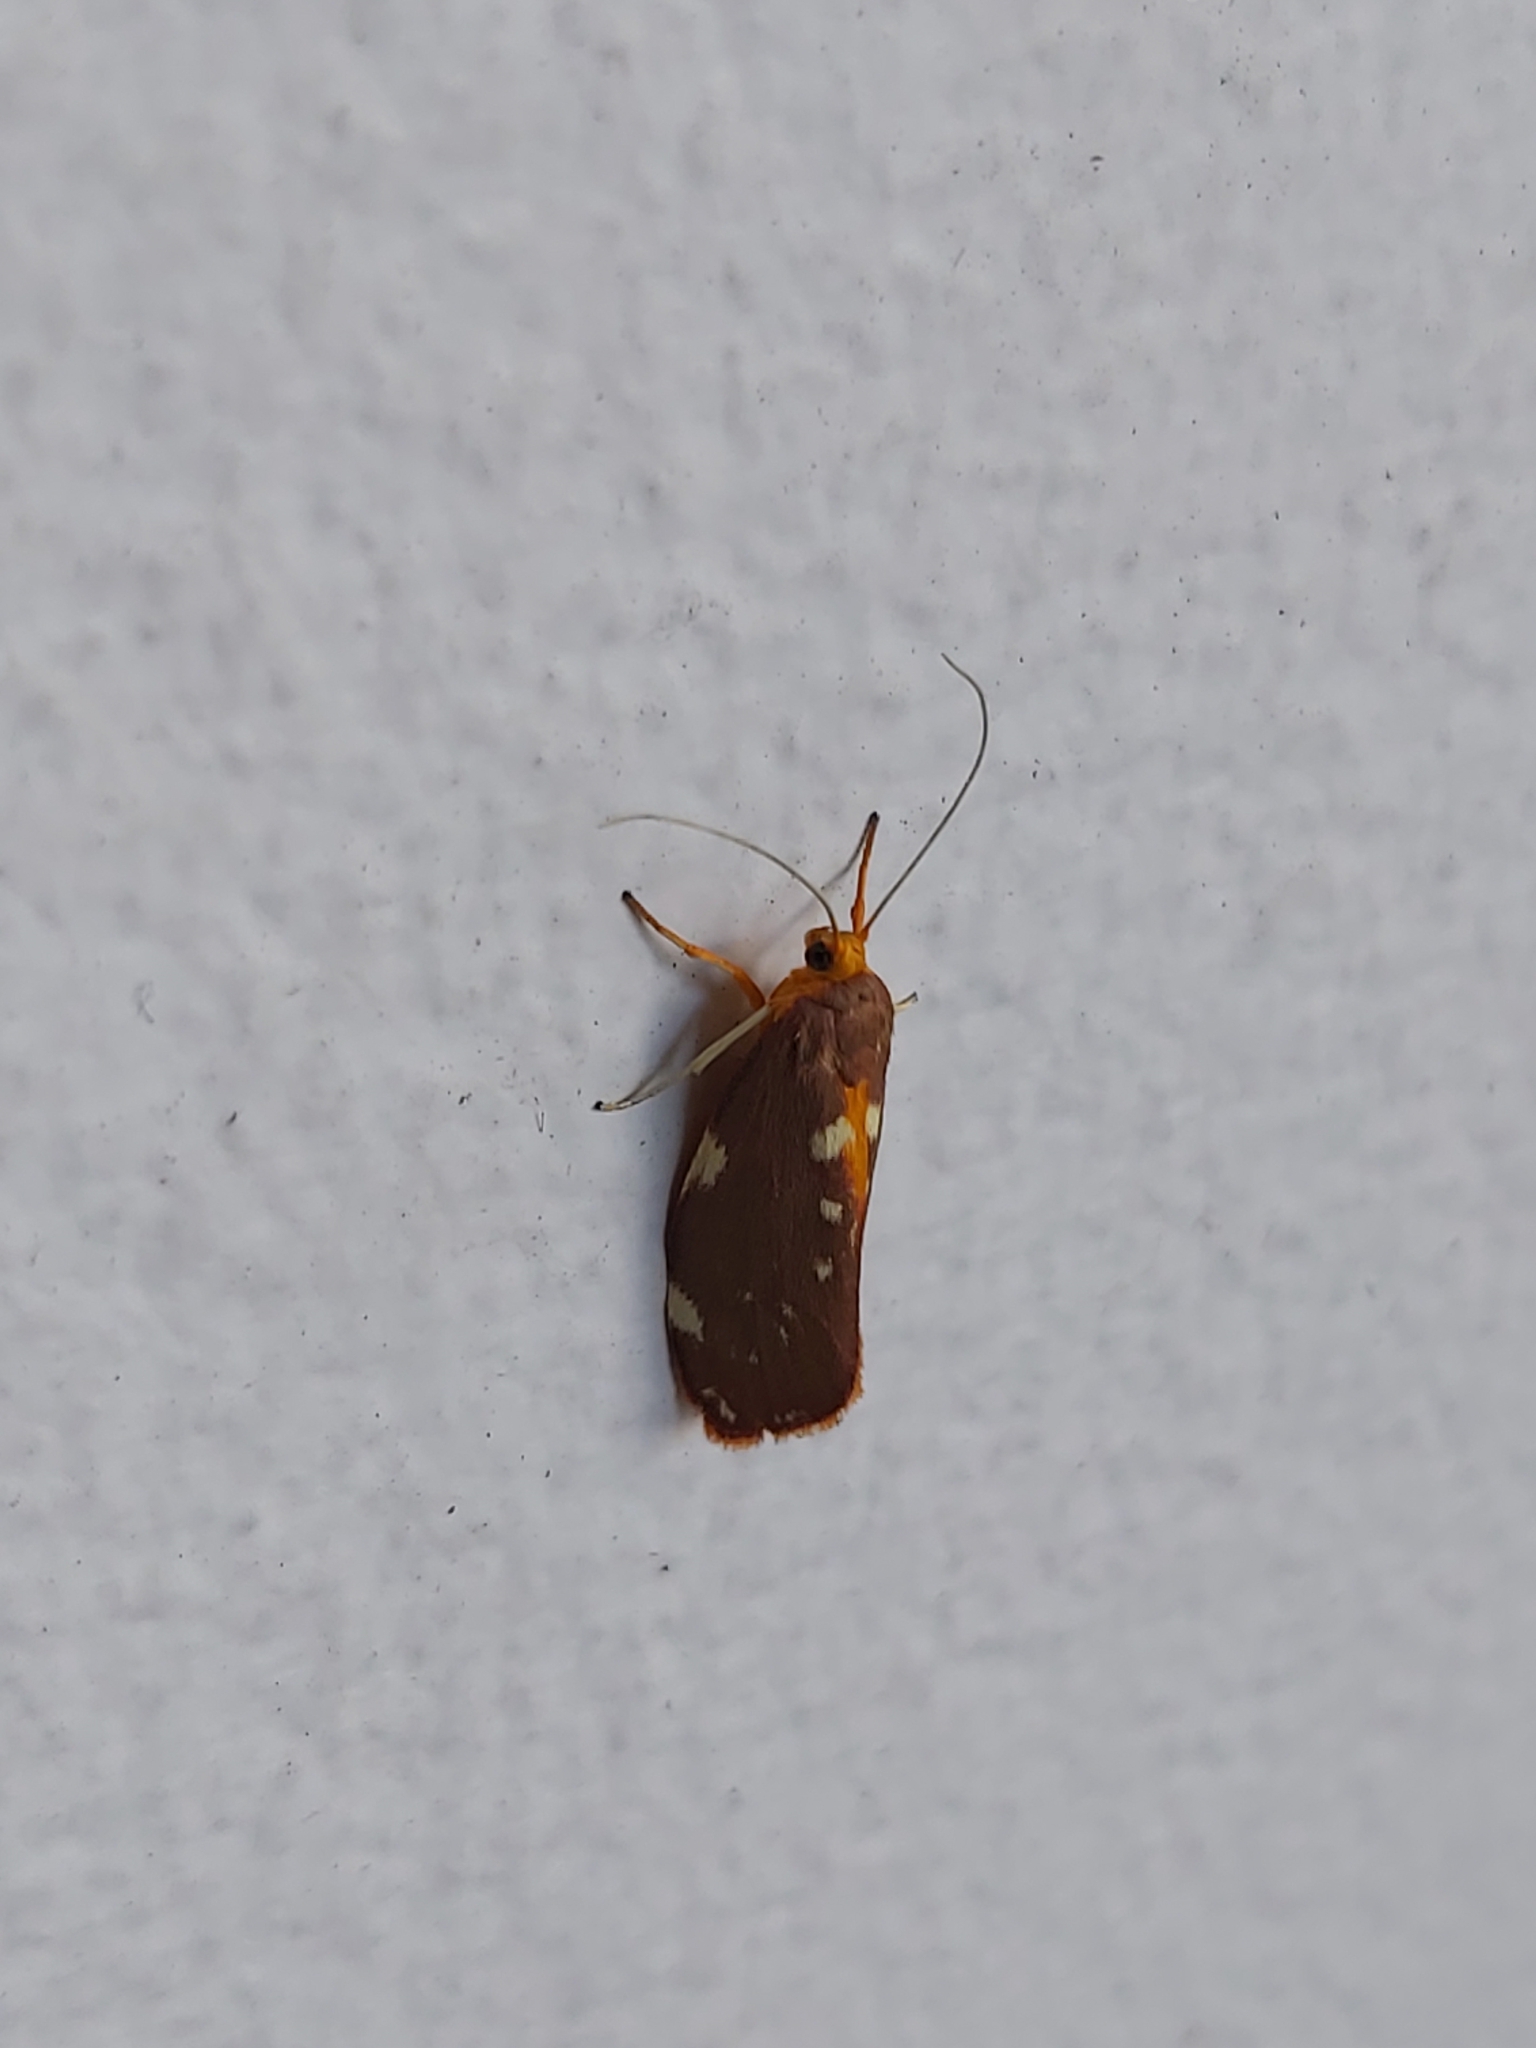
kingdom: Animalia
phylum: Arthropoda
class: Insecta
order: Lepidoptera
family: Lacturidae
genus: Lactura
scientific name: Lactura caminaea
